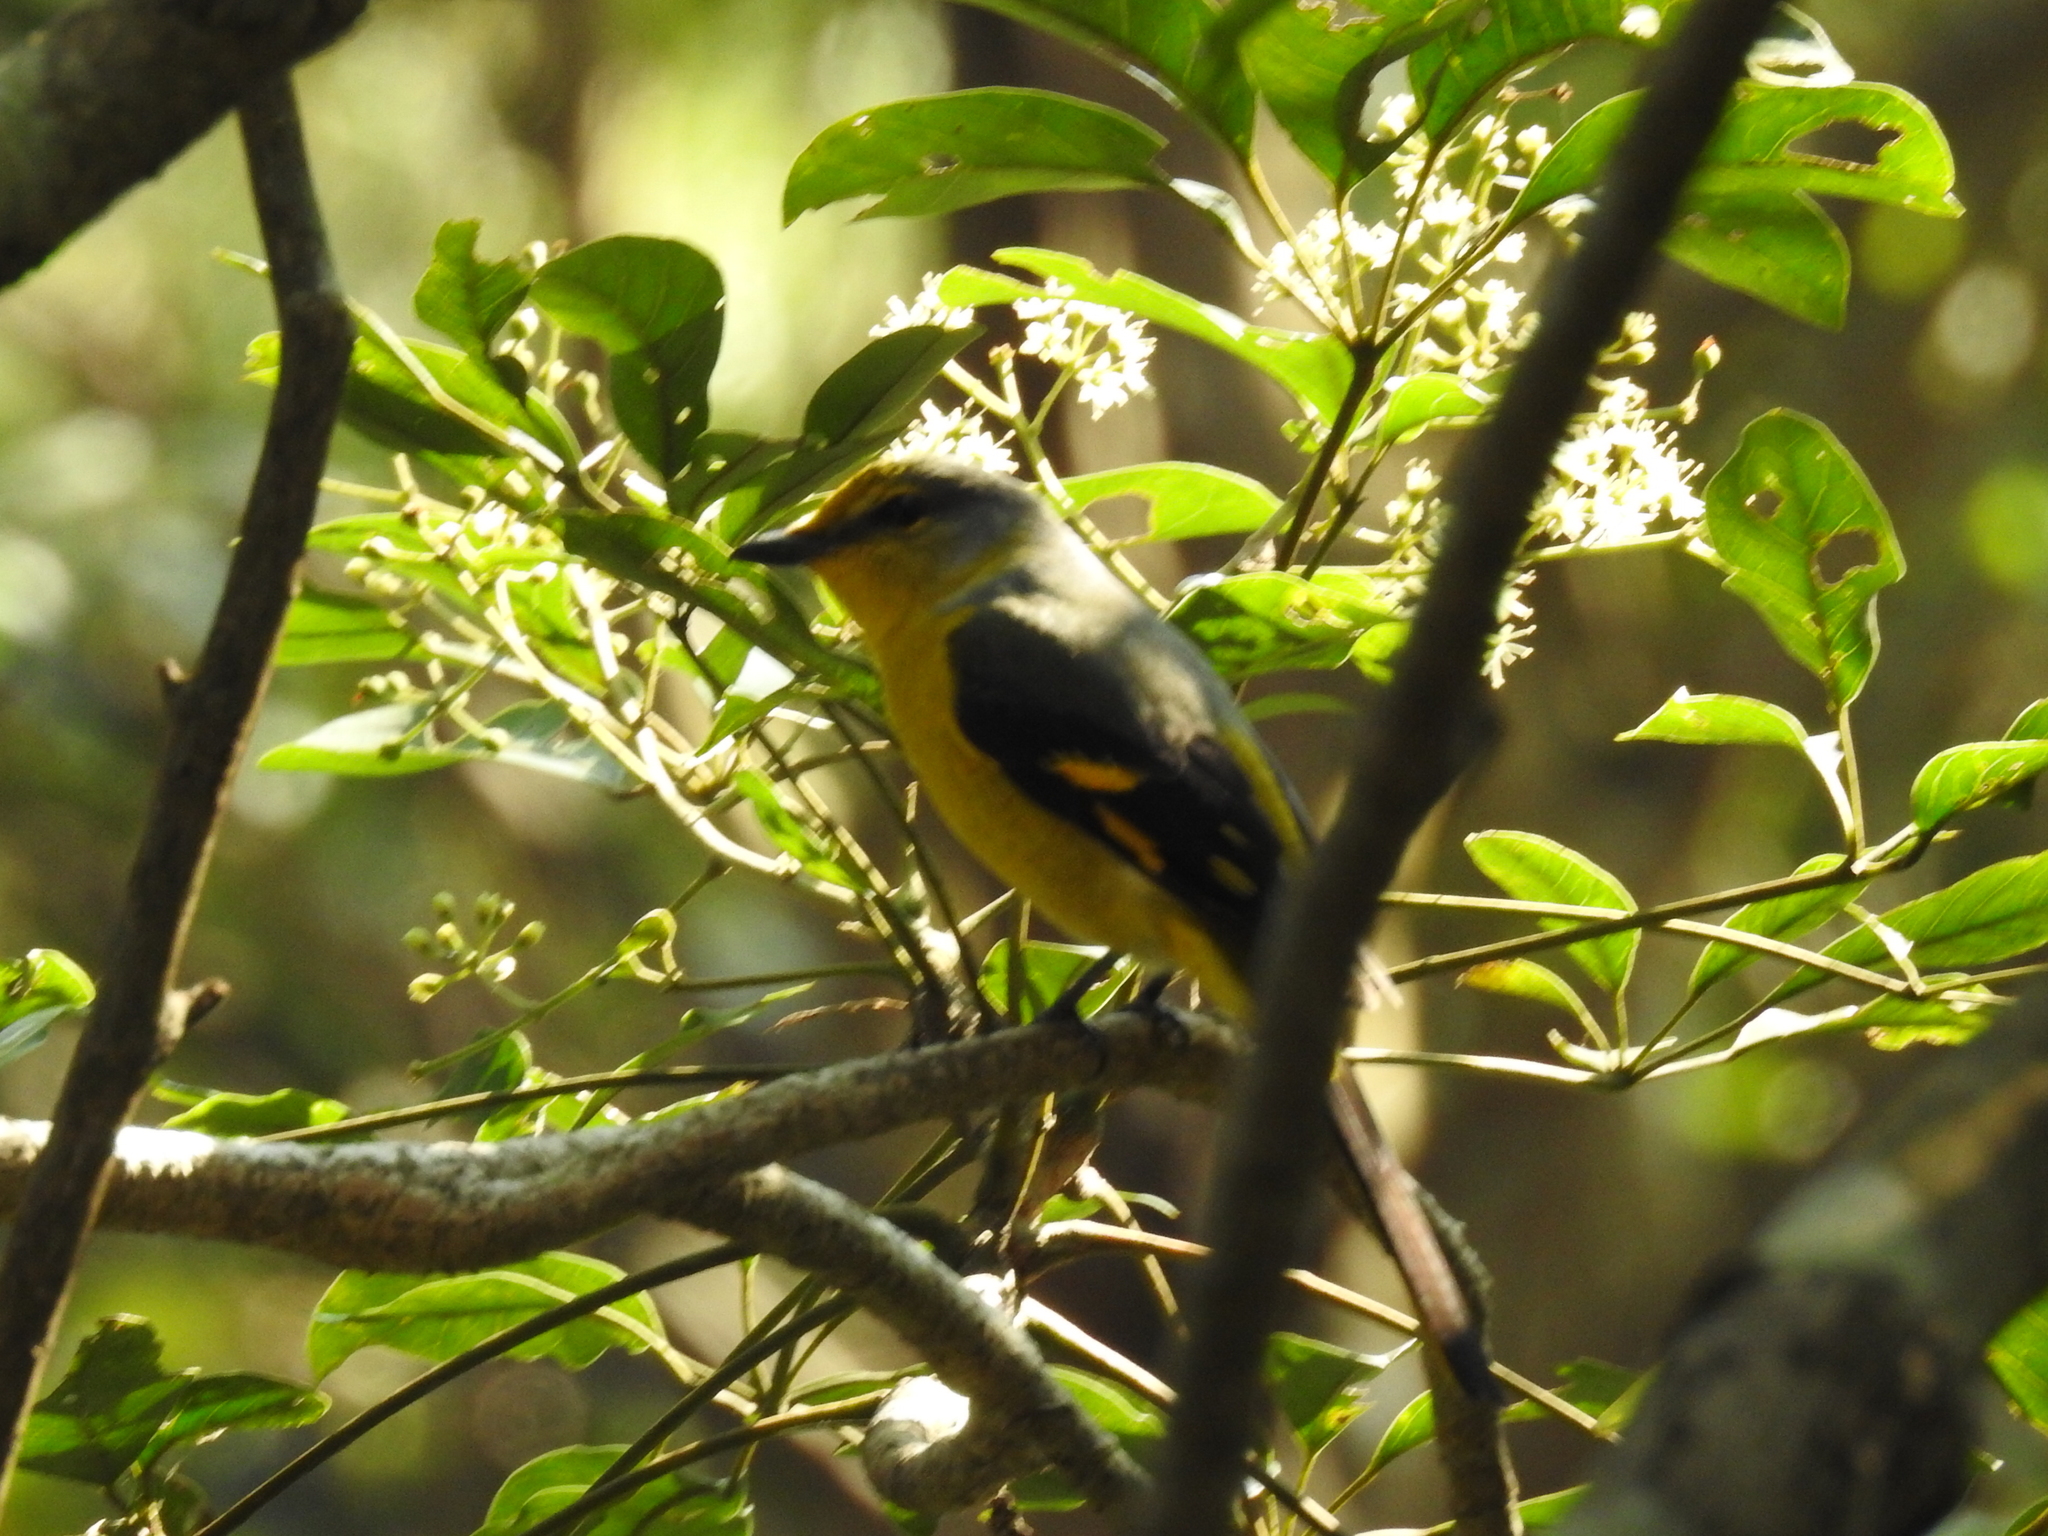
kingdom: Animalia
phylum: Chordata
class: Aves
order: Passeriformes
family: Campephagidae
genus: Pericrocotus
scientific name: Pericrocotus speciosus
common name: Scarlet minivet
